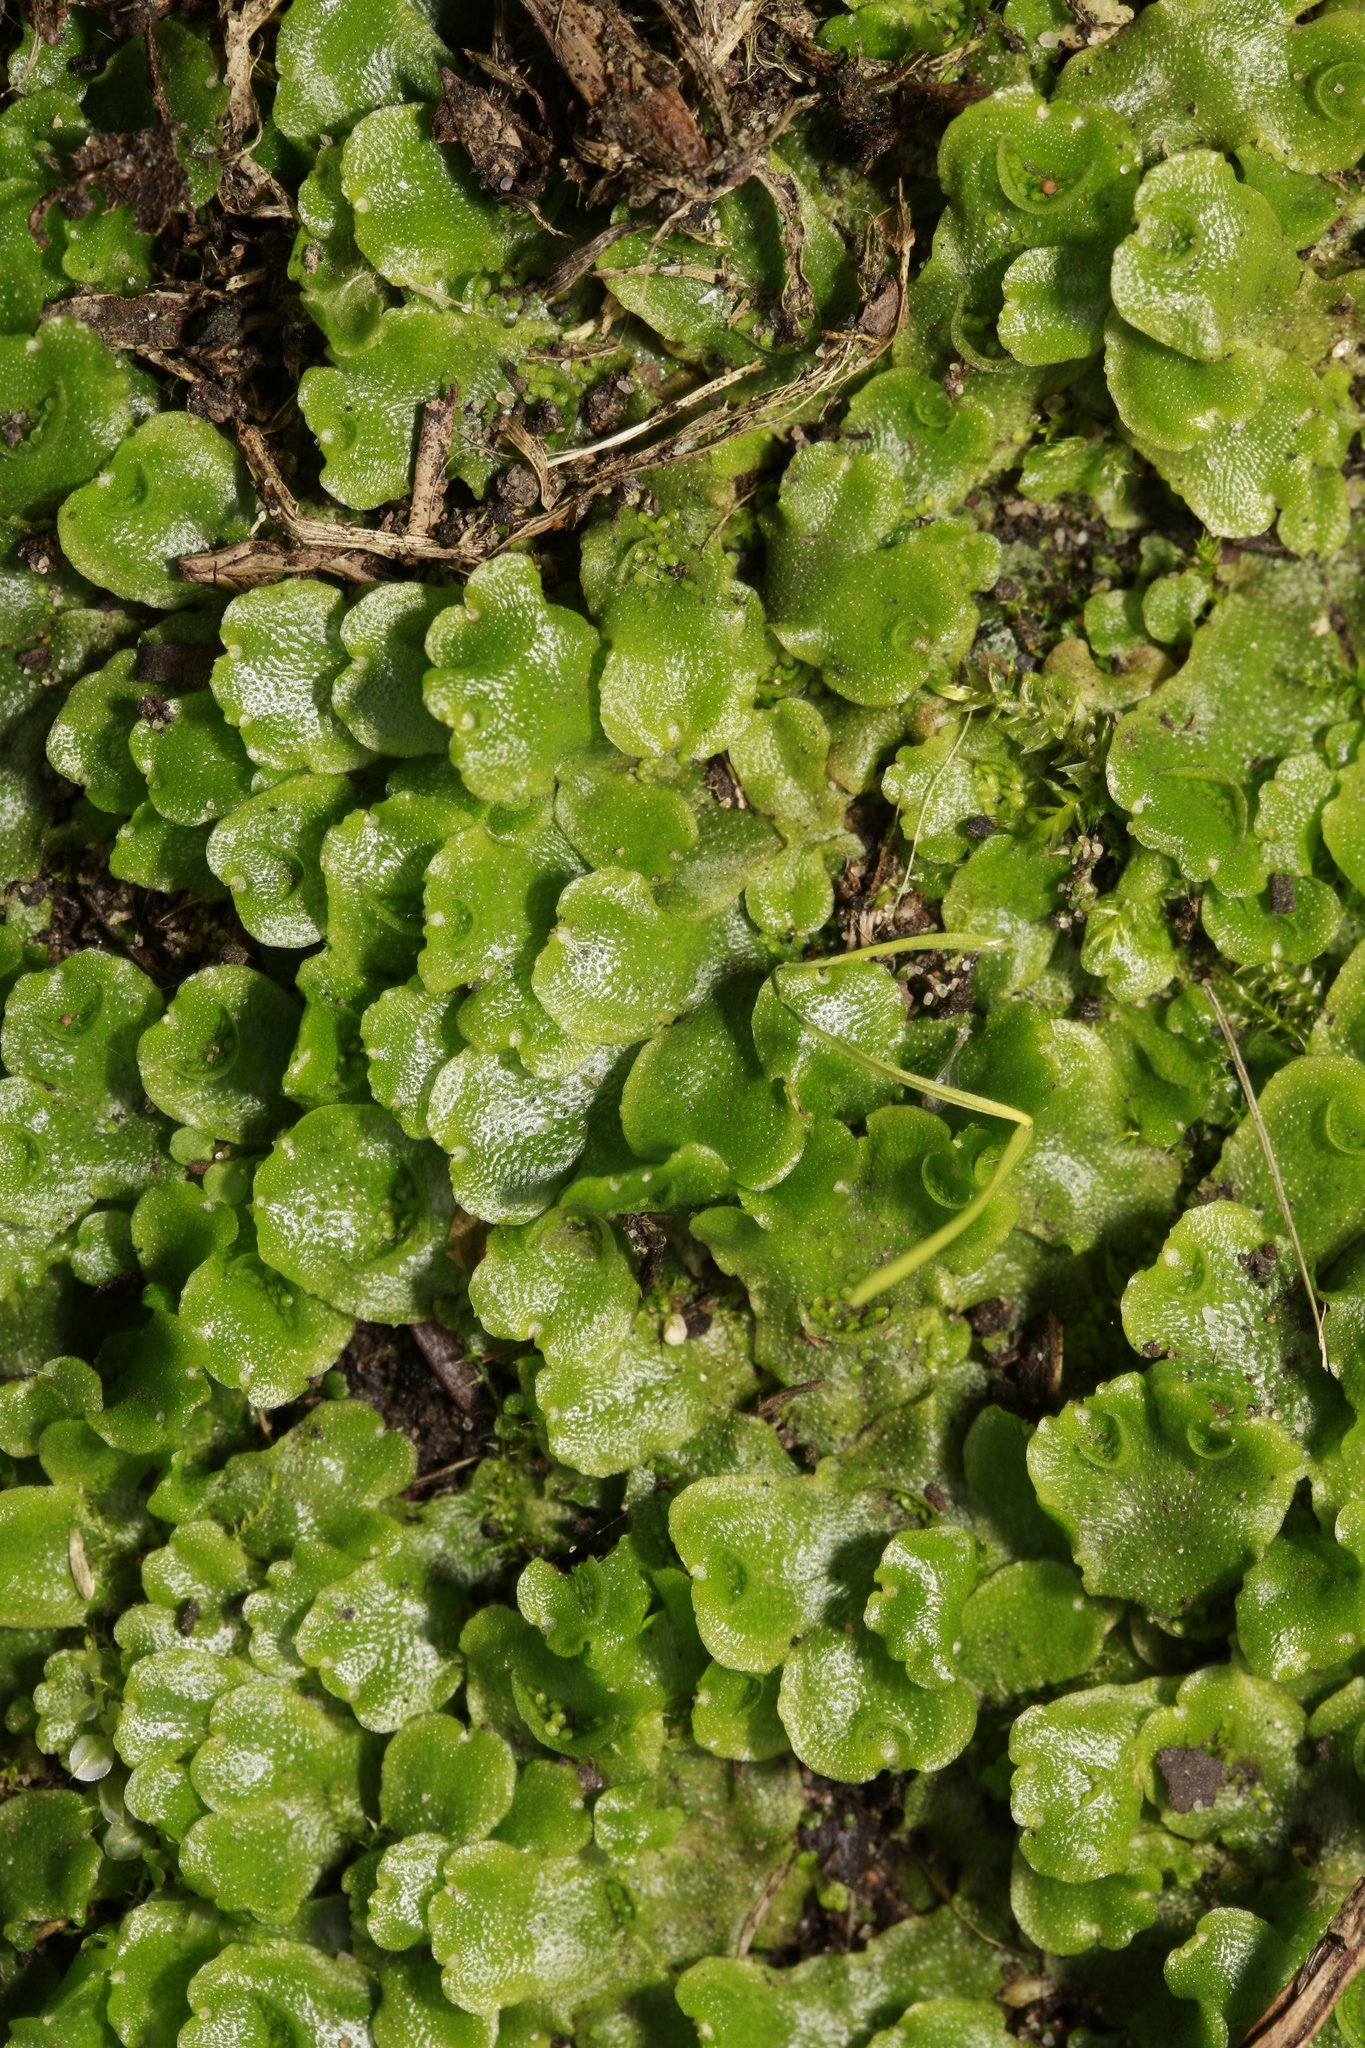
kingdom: Plantae
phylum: Marchantiophyta
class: Marchantiopsida
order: Lunulariales
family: Lunulariaceae
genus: Lunularia
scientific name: Lunularia cruciata
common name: Crescent-cup liverwort
